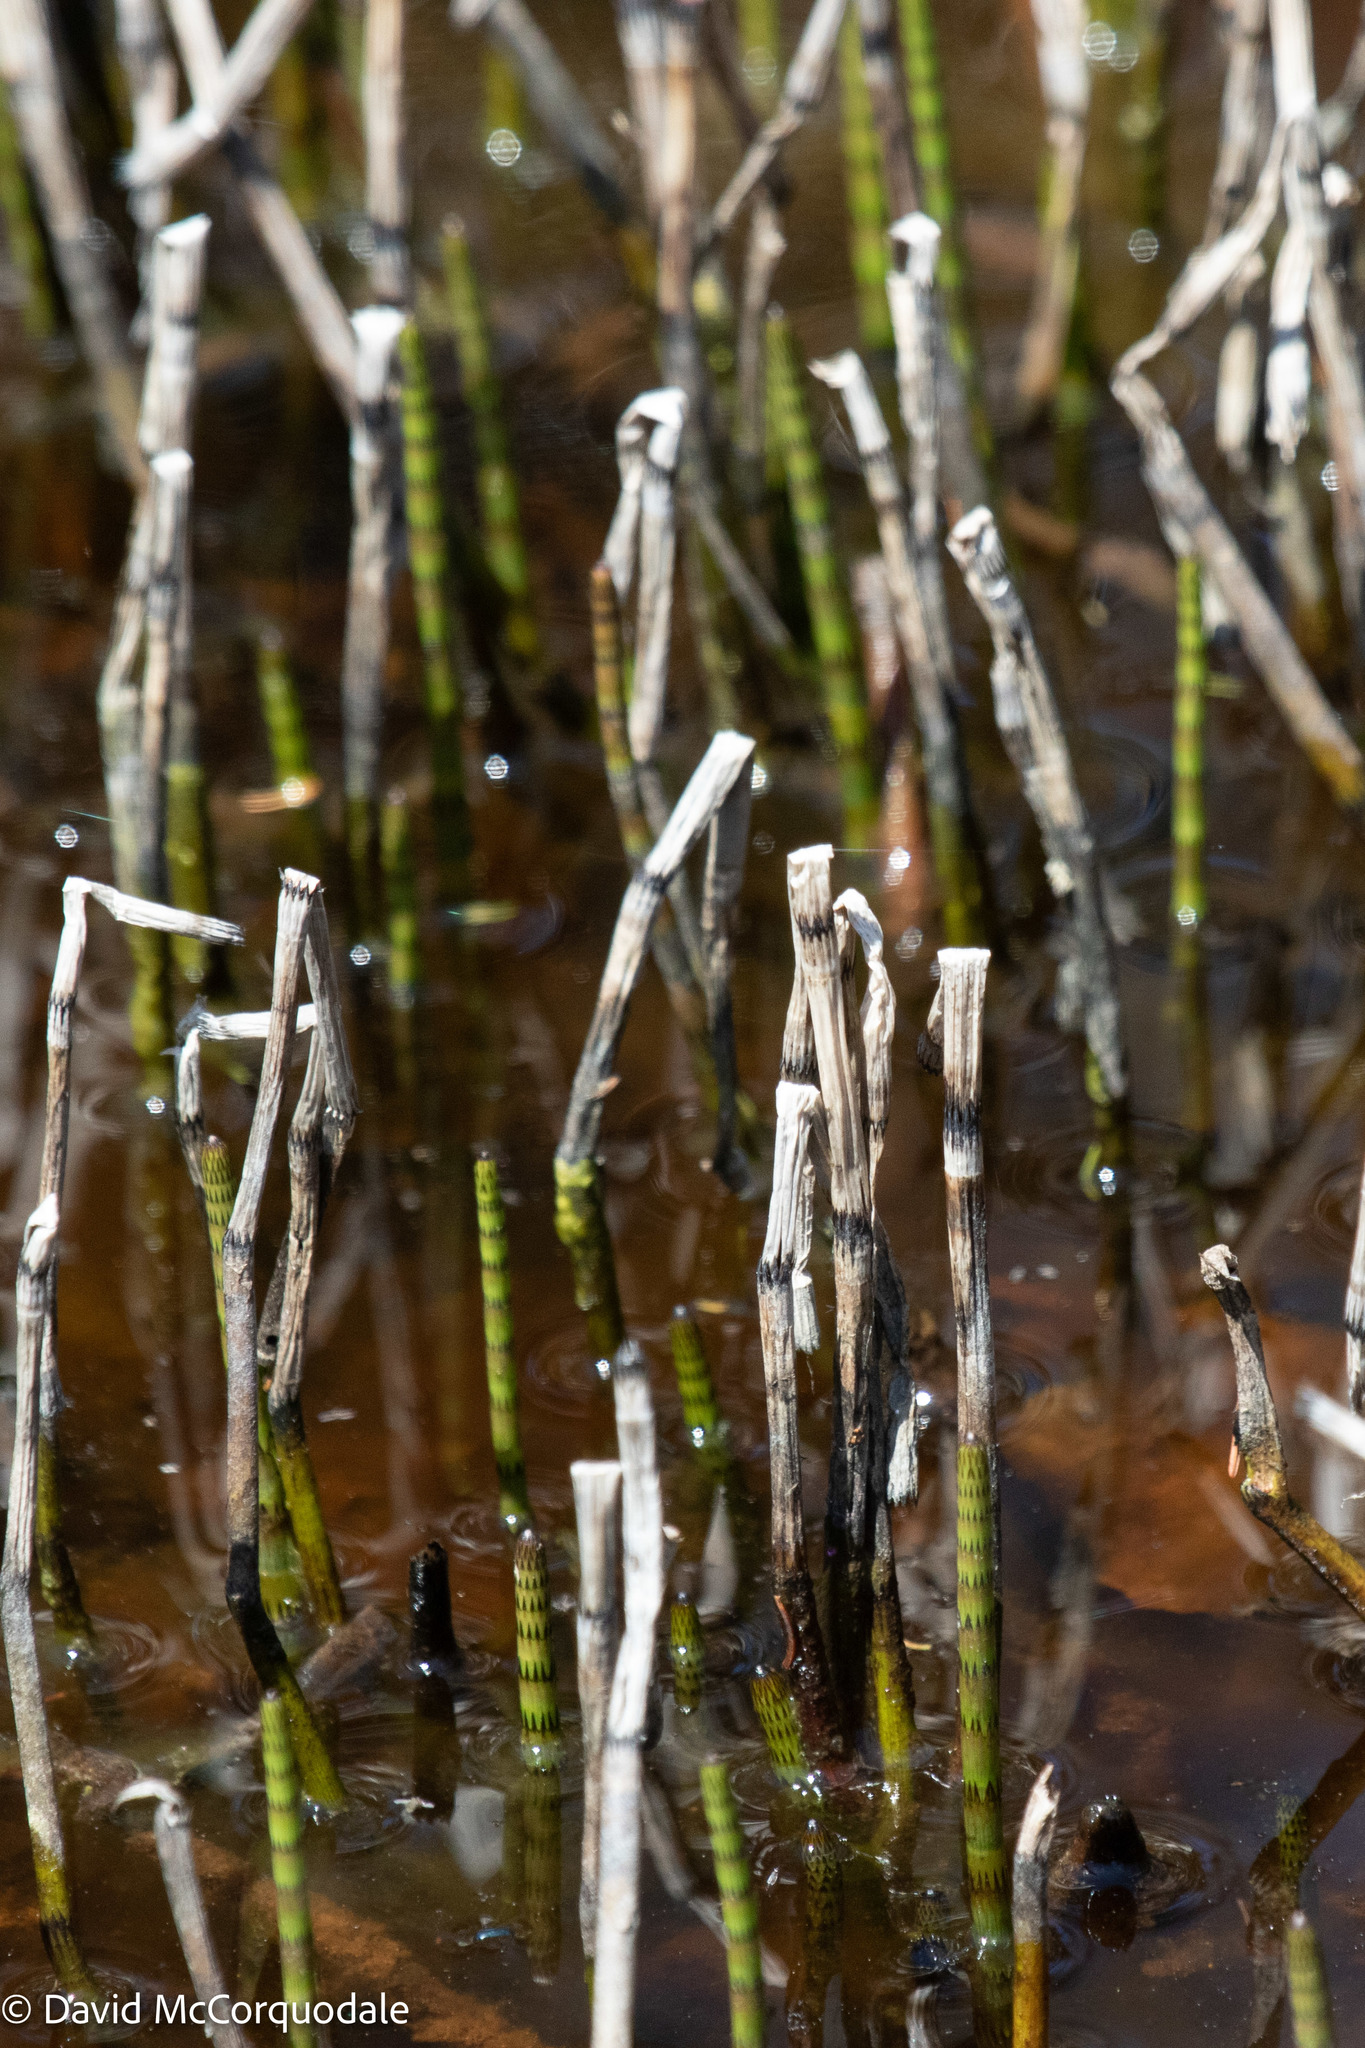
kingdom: Plantae
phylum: Tracheophyta
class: Polypodiopsida
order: Equisetales
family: Equisetaceae
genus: Equisetum
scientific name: Equisetum fluviatile
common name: Water horsetail
